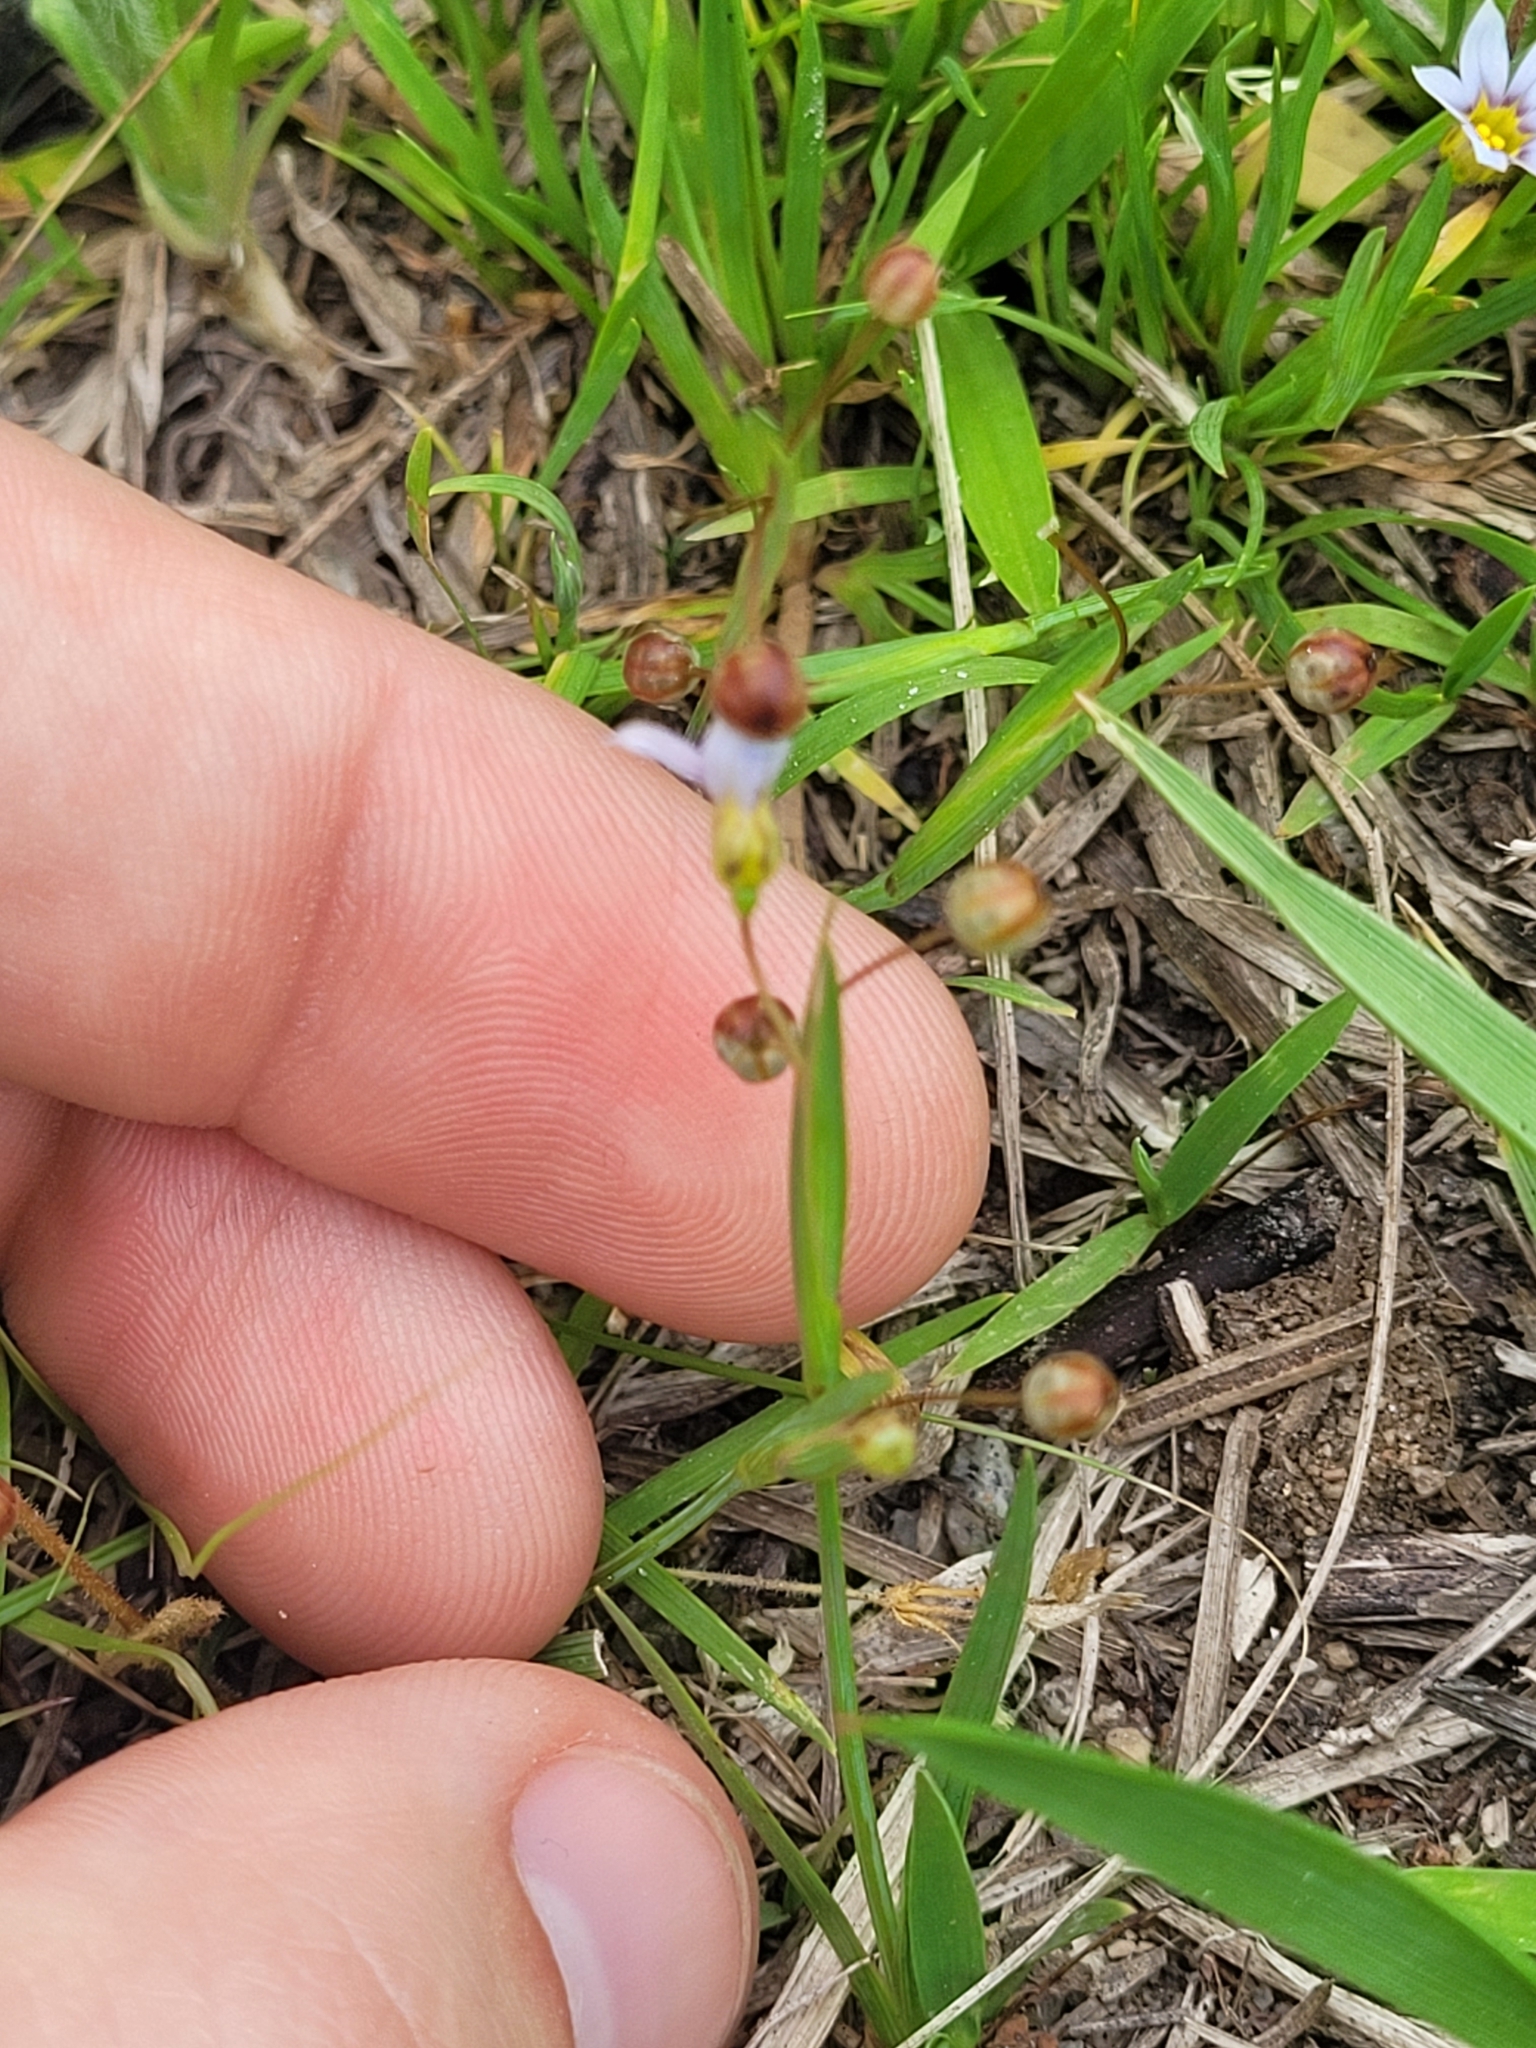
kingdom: Plantae
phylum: Tracheophyta
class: Liliopsida
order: Asparagales
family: Iridaceae
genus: Sisyrinchium
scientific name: Sisyrinchium micranthum
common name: Bermuda pigroot
